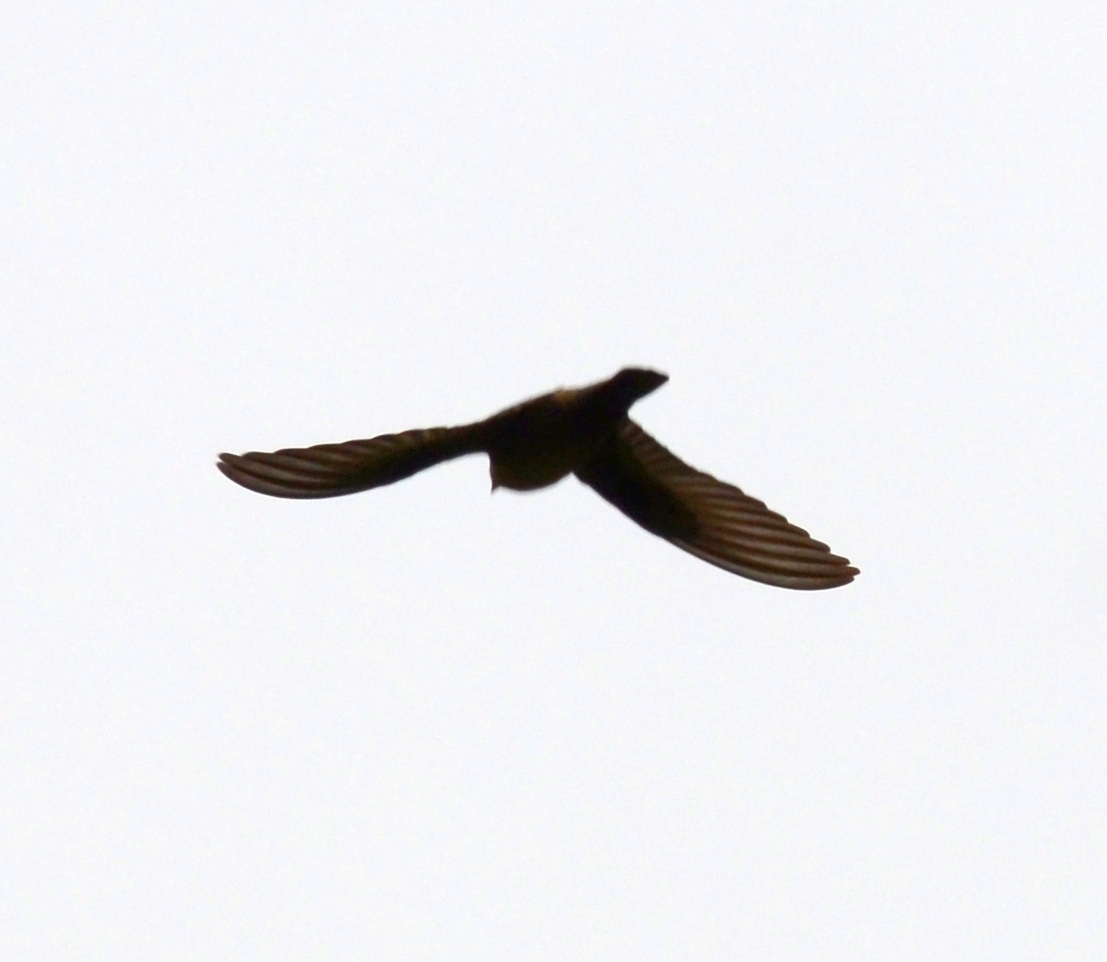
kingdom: Animalia
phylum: Chordata
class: Aves
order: Passeriformes
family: Hirundinidae
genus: Ptyonoprogne
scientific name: Ptyonoprogne rupestris
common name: Eurasian crag martin
